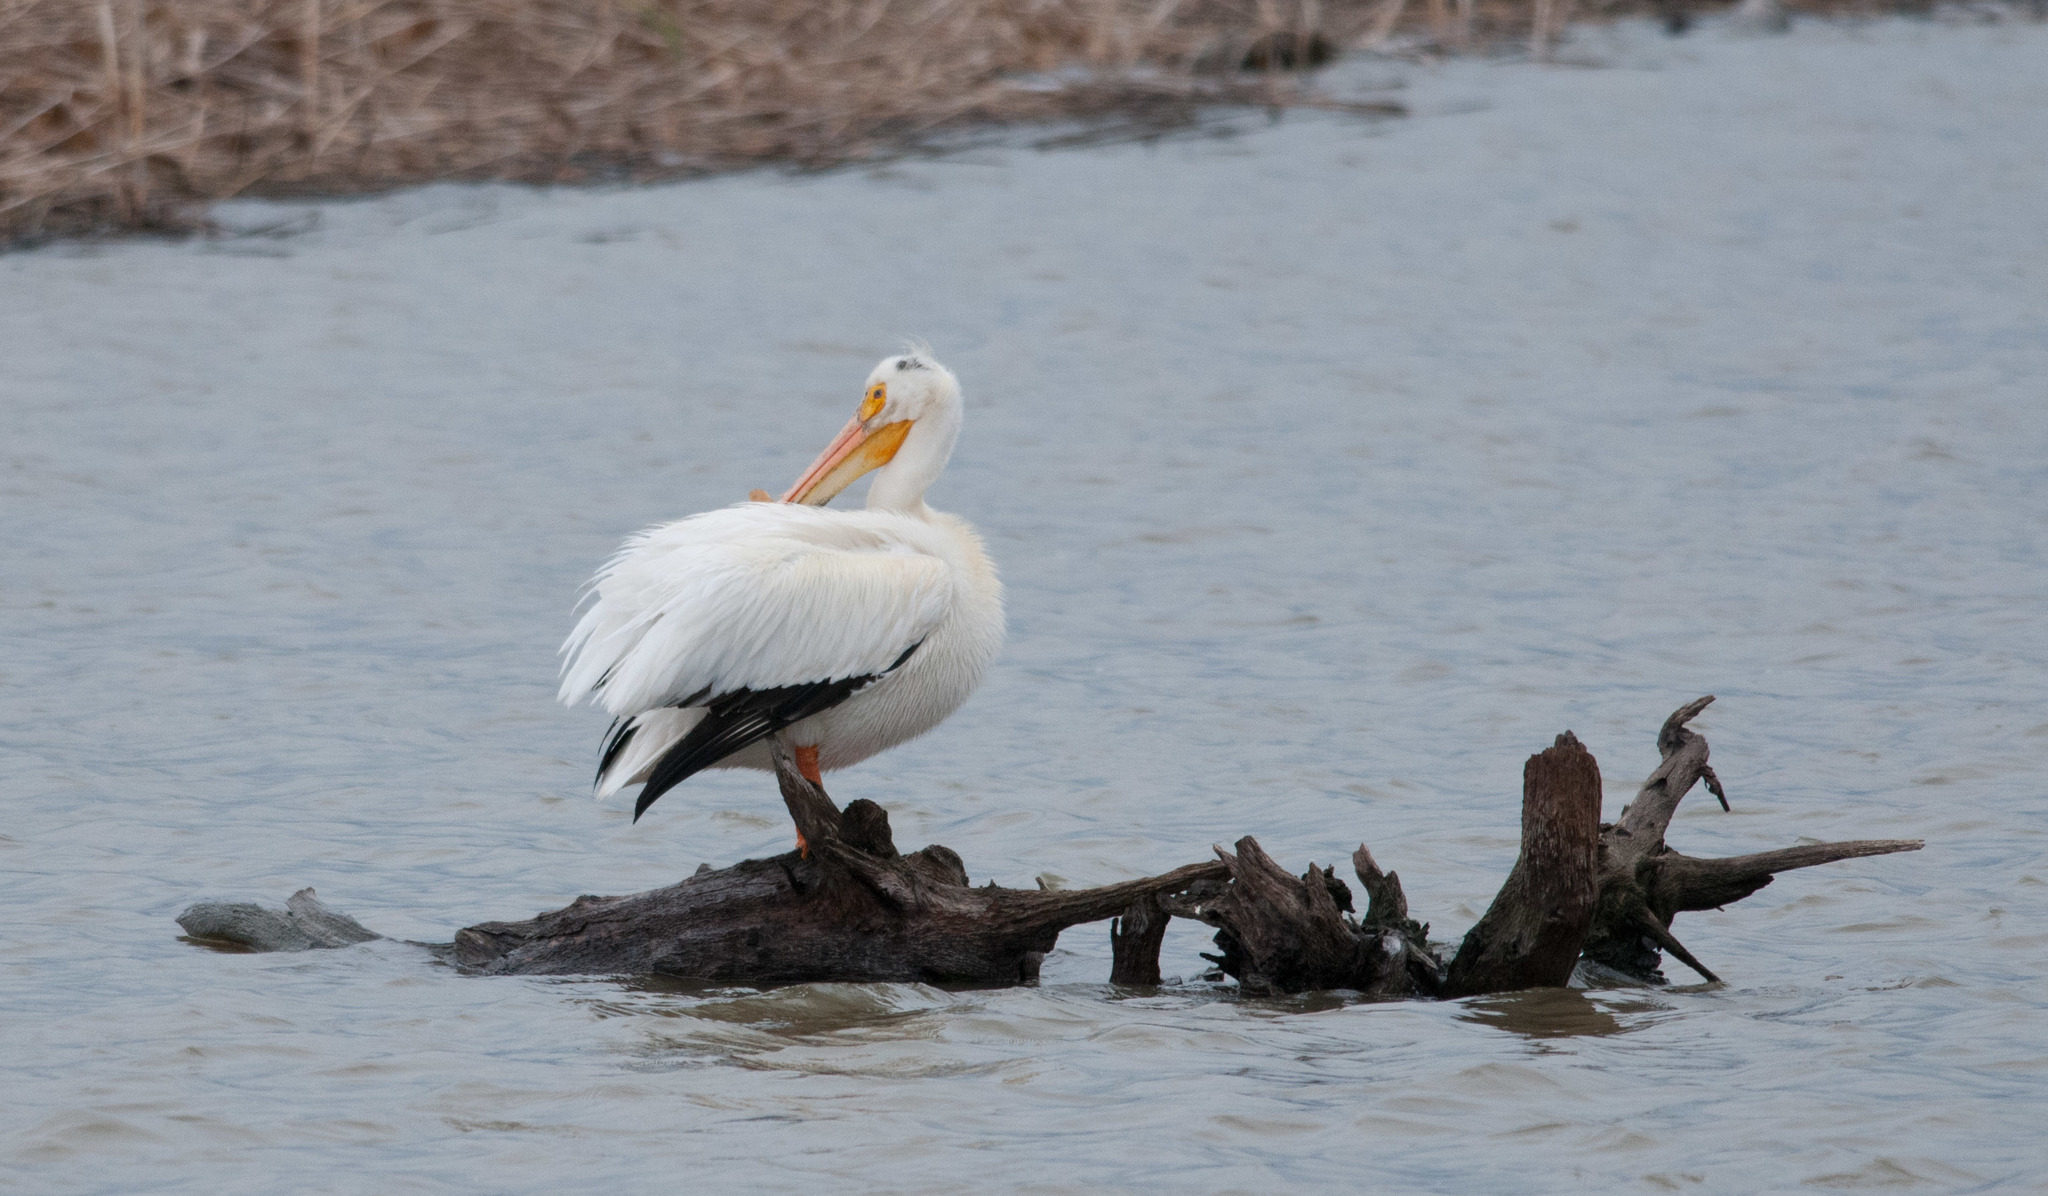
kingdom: Animalia
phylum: Chordata
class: Aves
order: Pelecaniformes
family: Pelecanidae
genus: Pelecanus
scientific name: Pelecanus erythrorhynchos
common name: American white pelican
